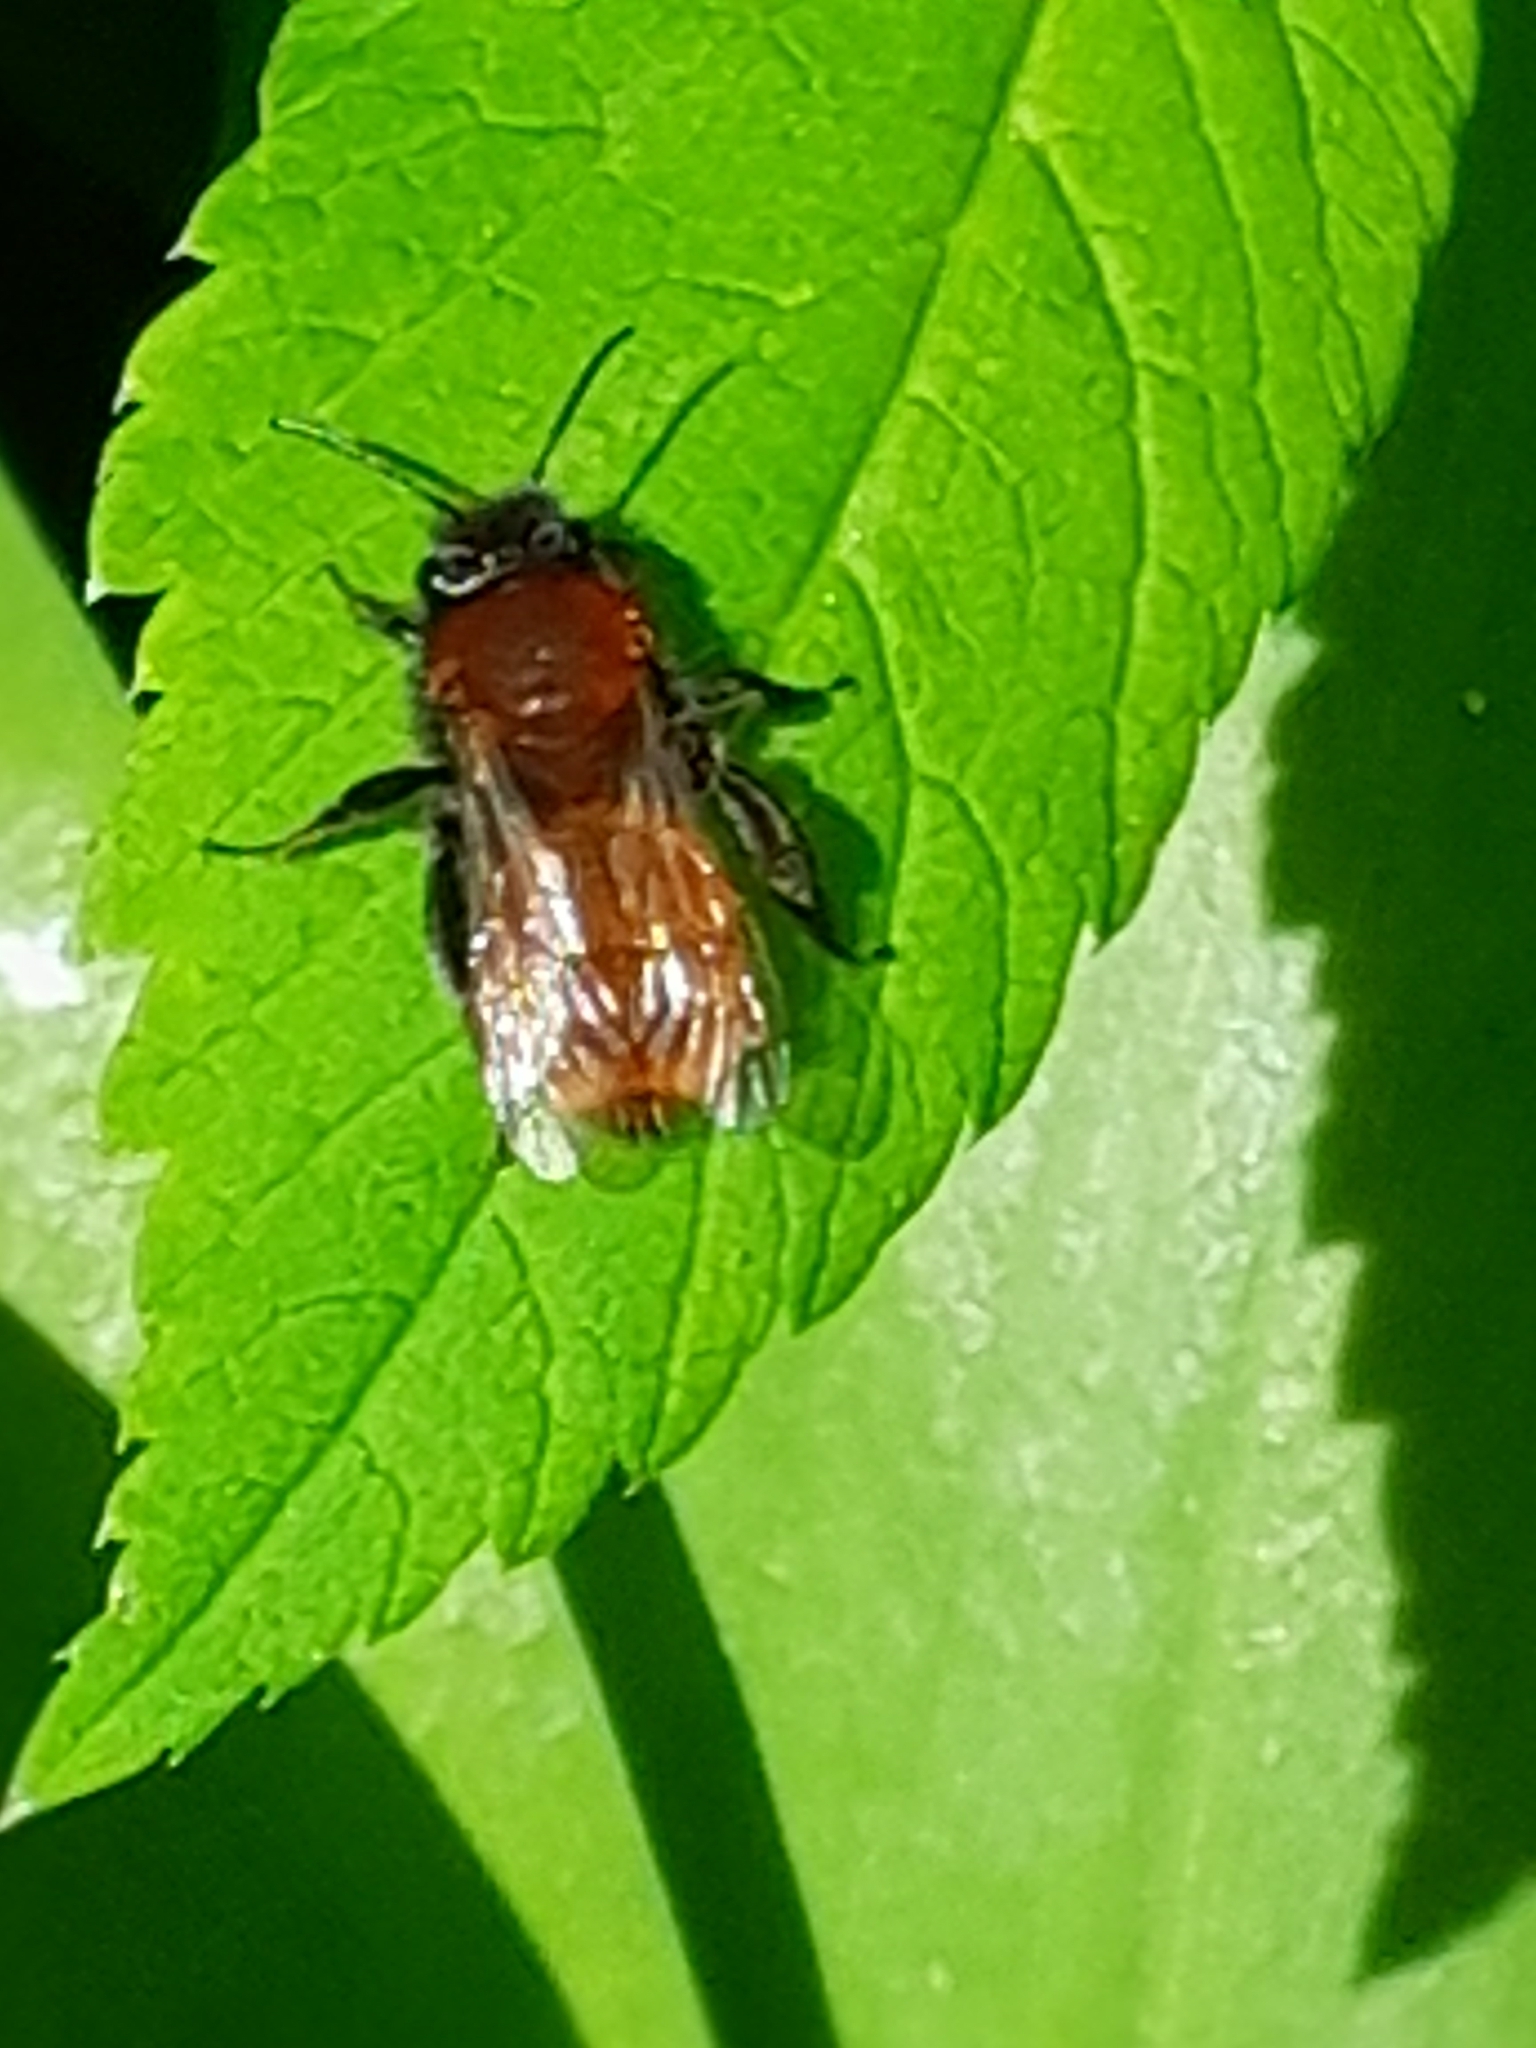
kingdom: Animalia
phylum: Arthropoda
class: Insecta
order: Hymenoptera
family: Andrenidae
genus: Andrena
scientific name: Andrena fulva
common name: Tawny mining bee
